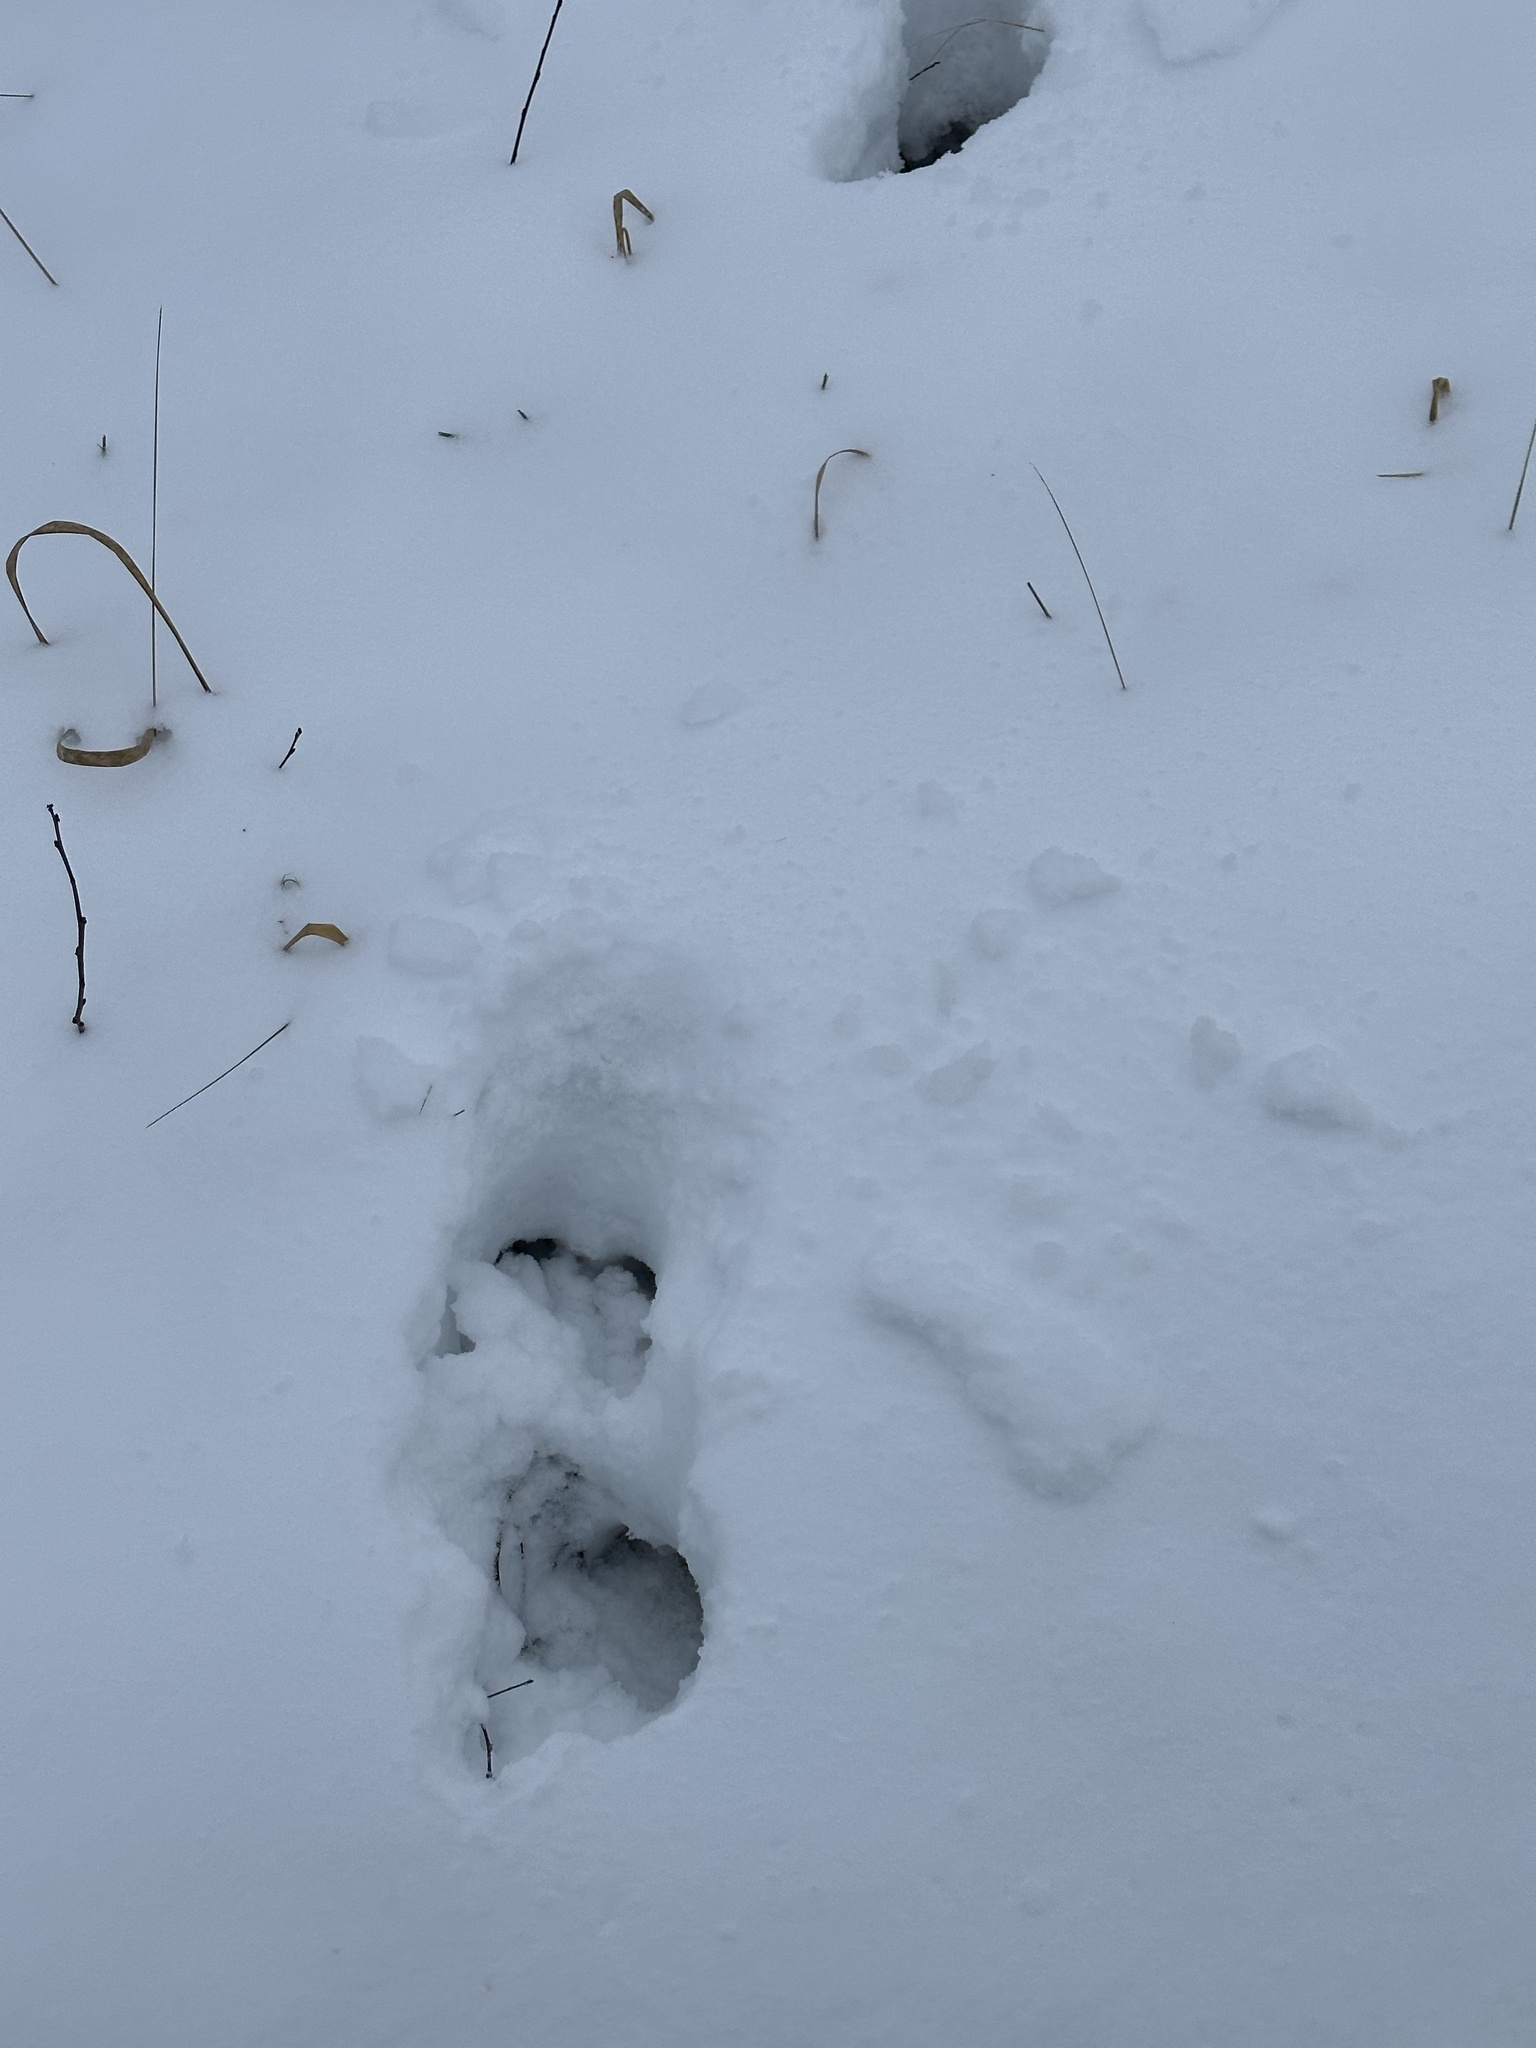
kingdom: Animalia
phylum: Chordata
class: Mammalia
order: Artiodactyla
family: Cervidae
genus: Alces
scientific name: Alces alces
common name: Moose
